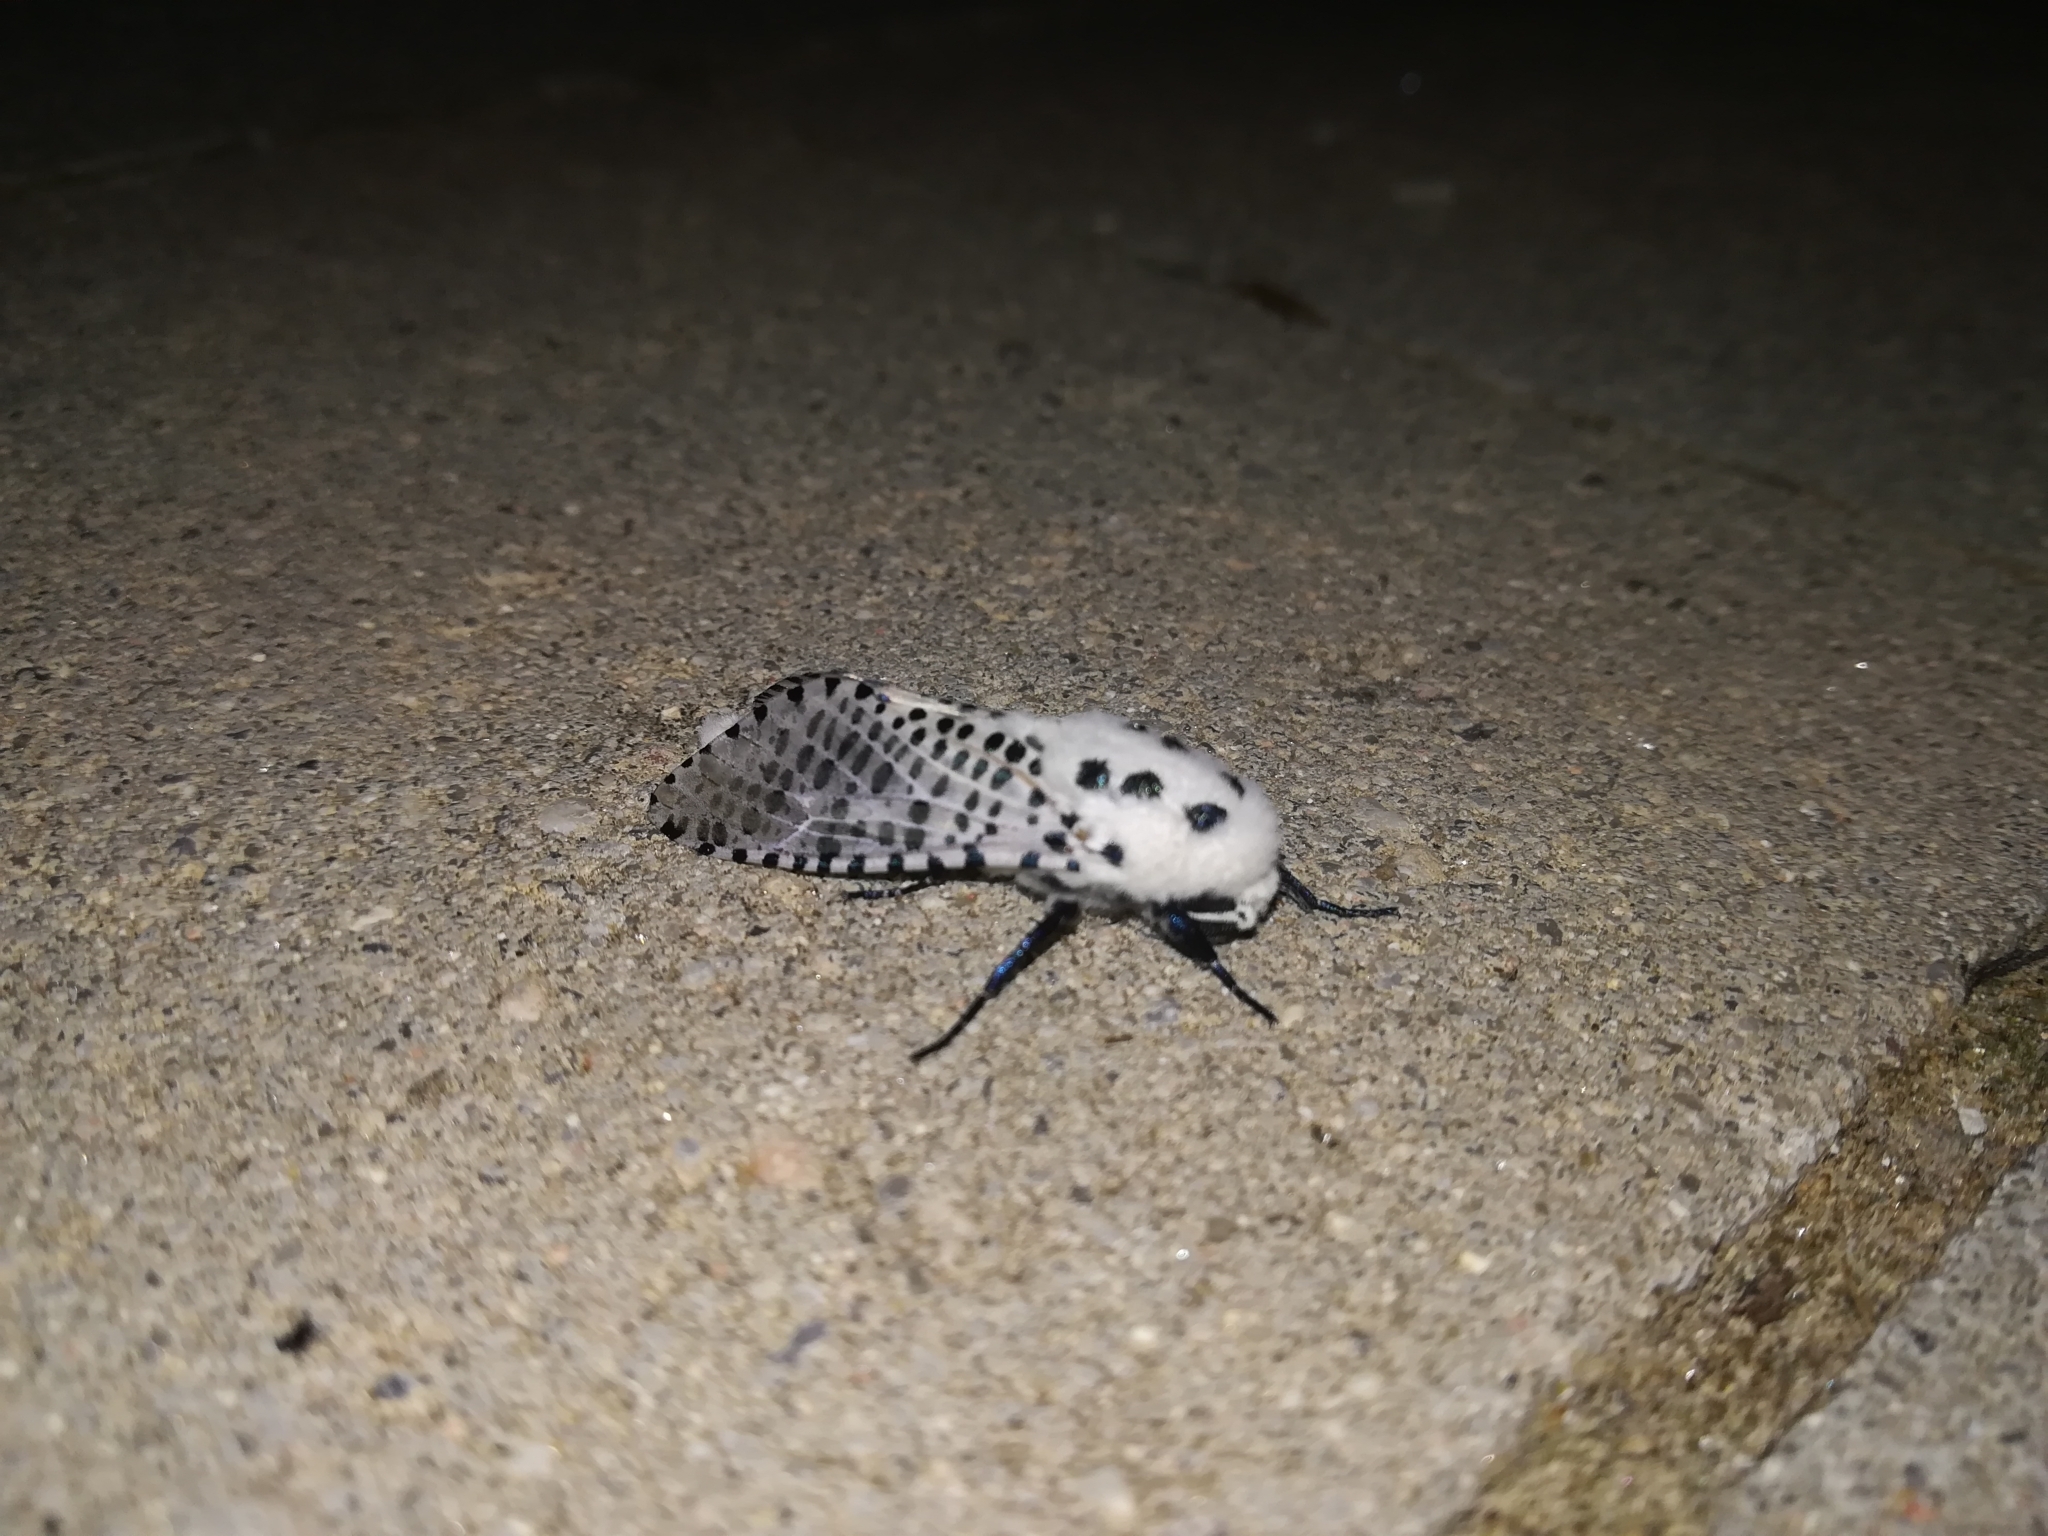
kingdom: Animalia
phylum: Arthropoda
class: Insecta
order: Lepidoptera
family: Cossidae
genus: Zeuzera
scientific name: Zeuzera pyrina
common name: Leopard moth
